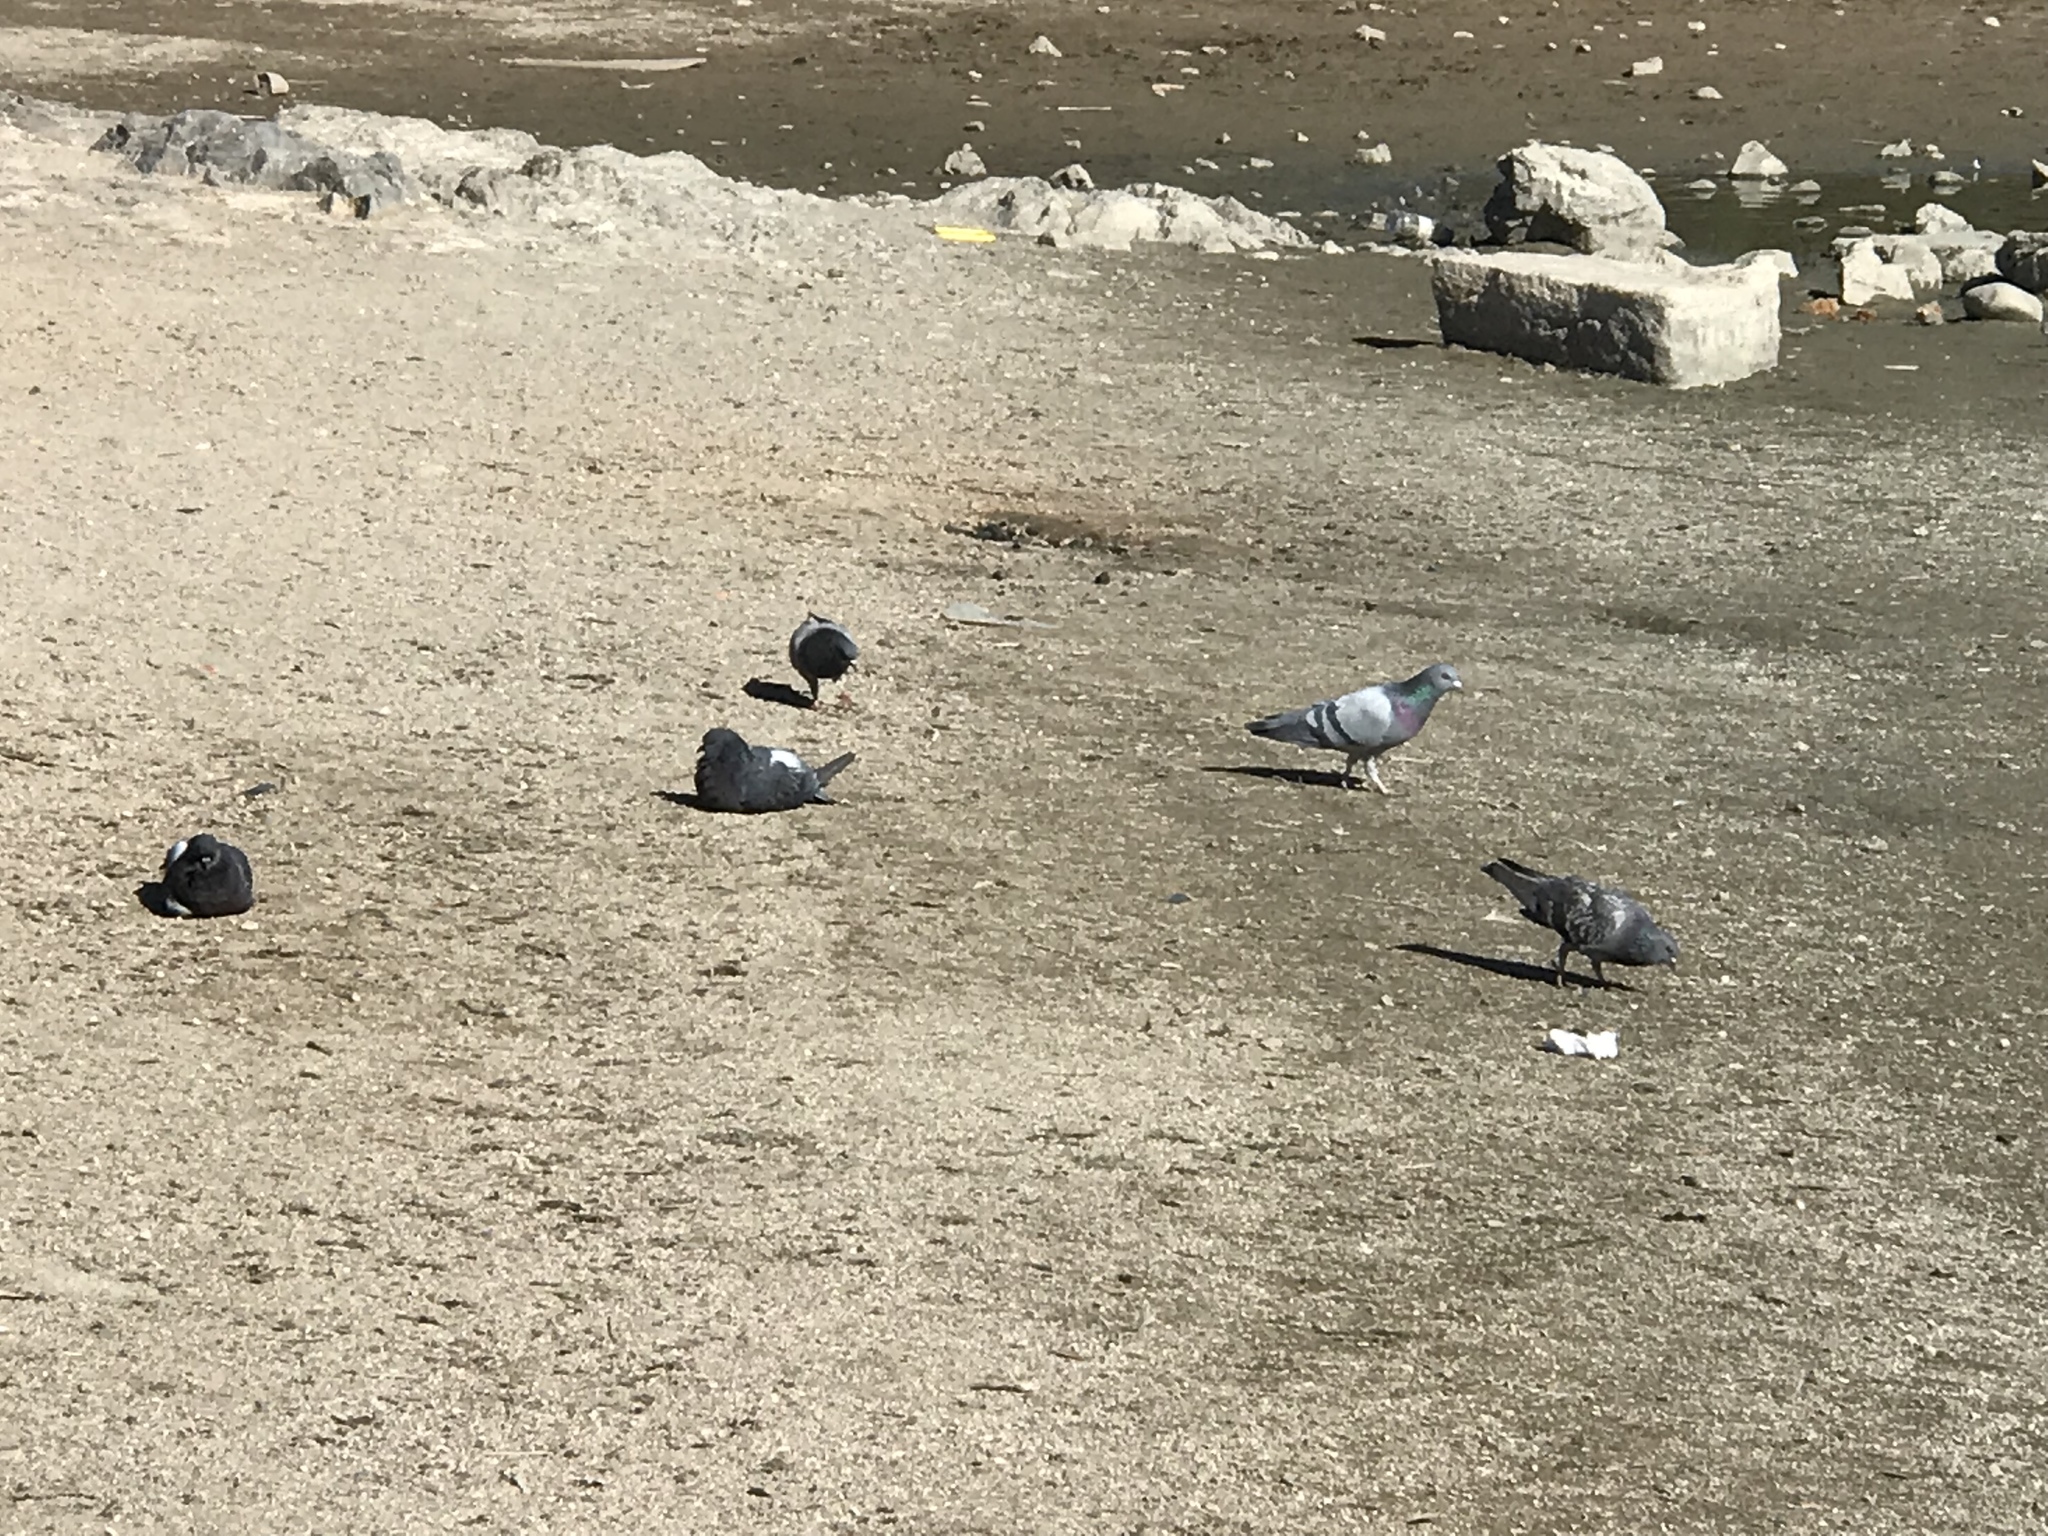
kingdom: Animalia
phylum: Chordata
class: Aves
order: Columbiformes
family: Columbidae
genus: Columba
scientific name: Columba livia
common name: Rock pigeon
